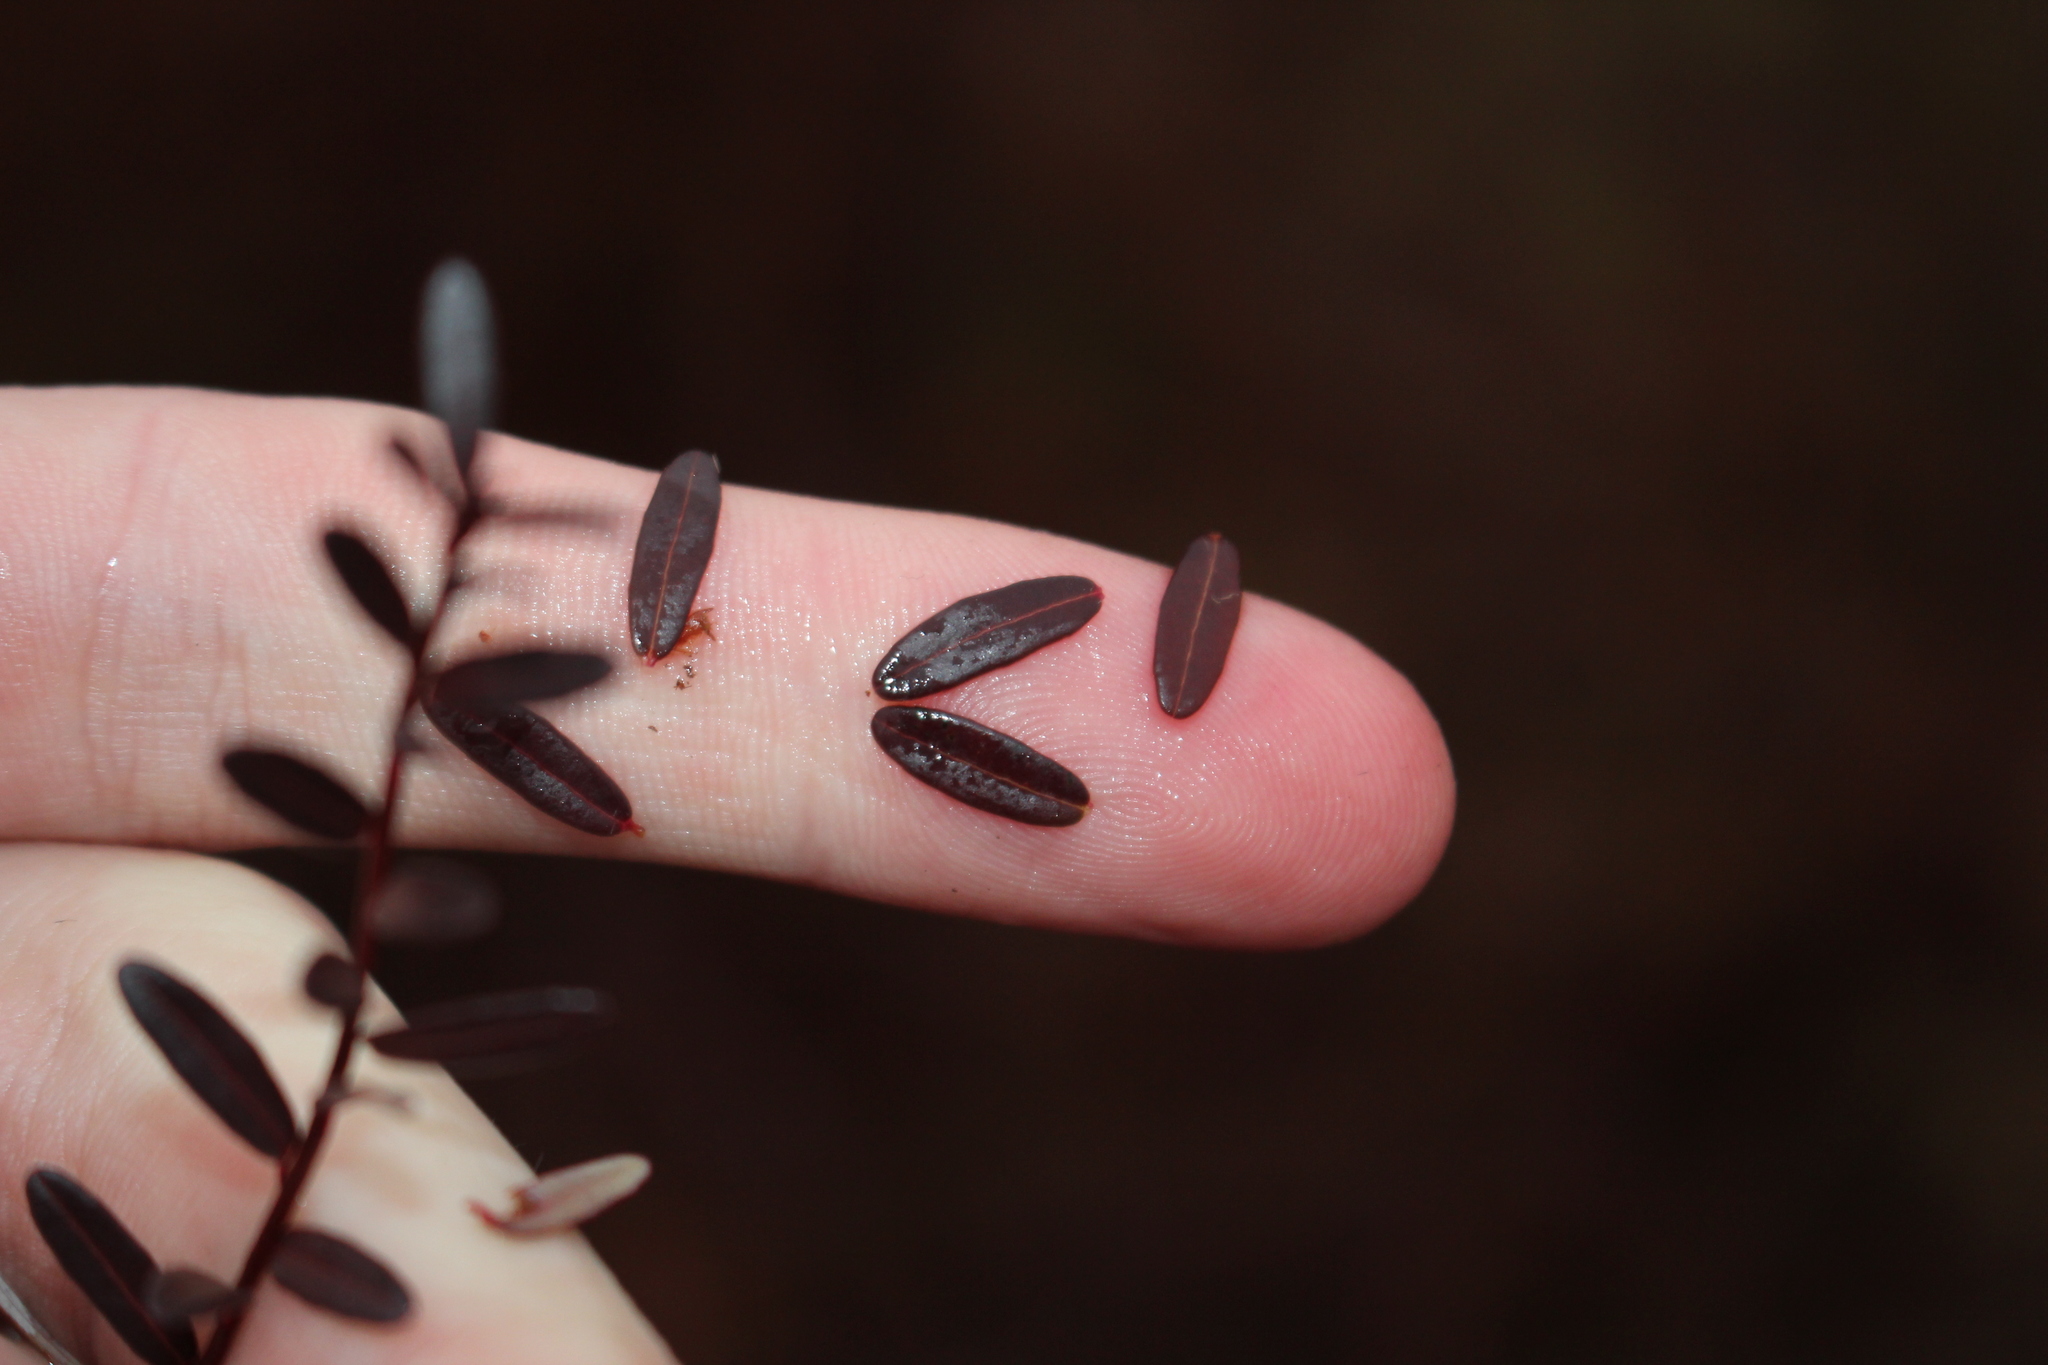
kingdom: Plantae
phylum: Tracheophyta
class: Magnoliopsida
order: Ericales
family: Ericaceae
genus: Vaccinium
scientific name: Vaccinium macrocarpon
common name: American cranberry
